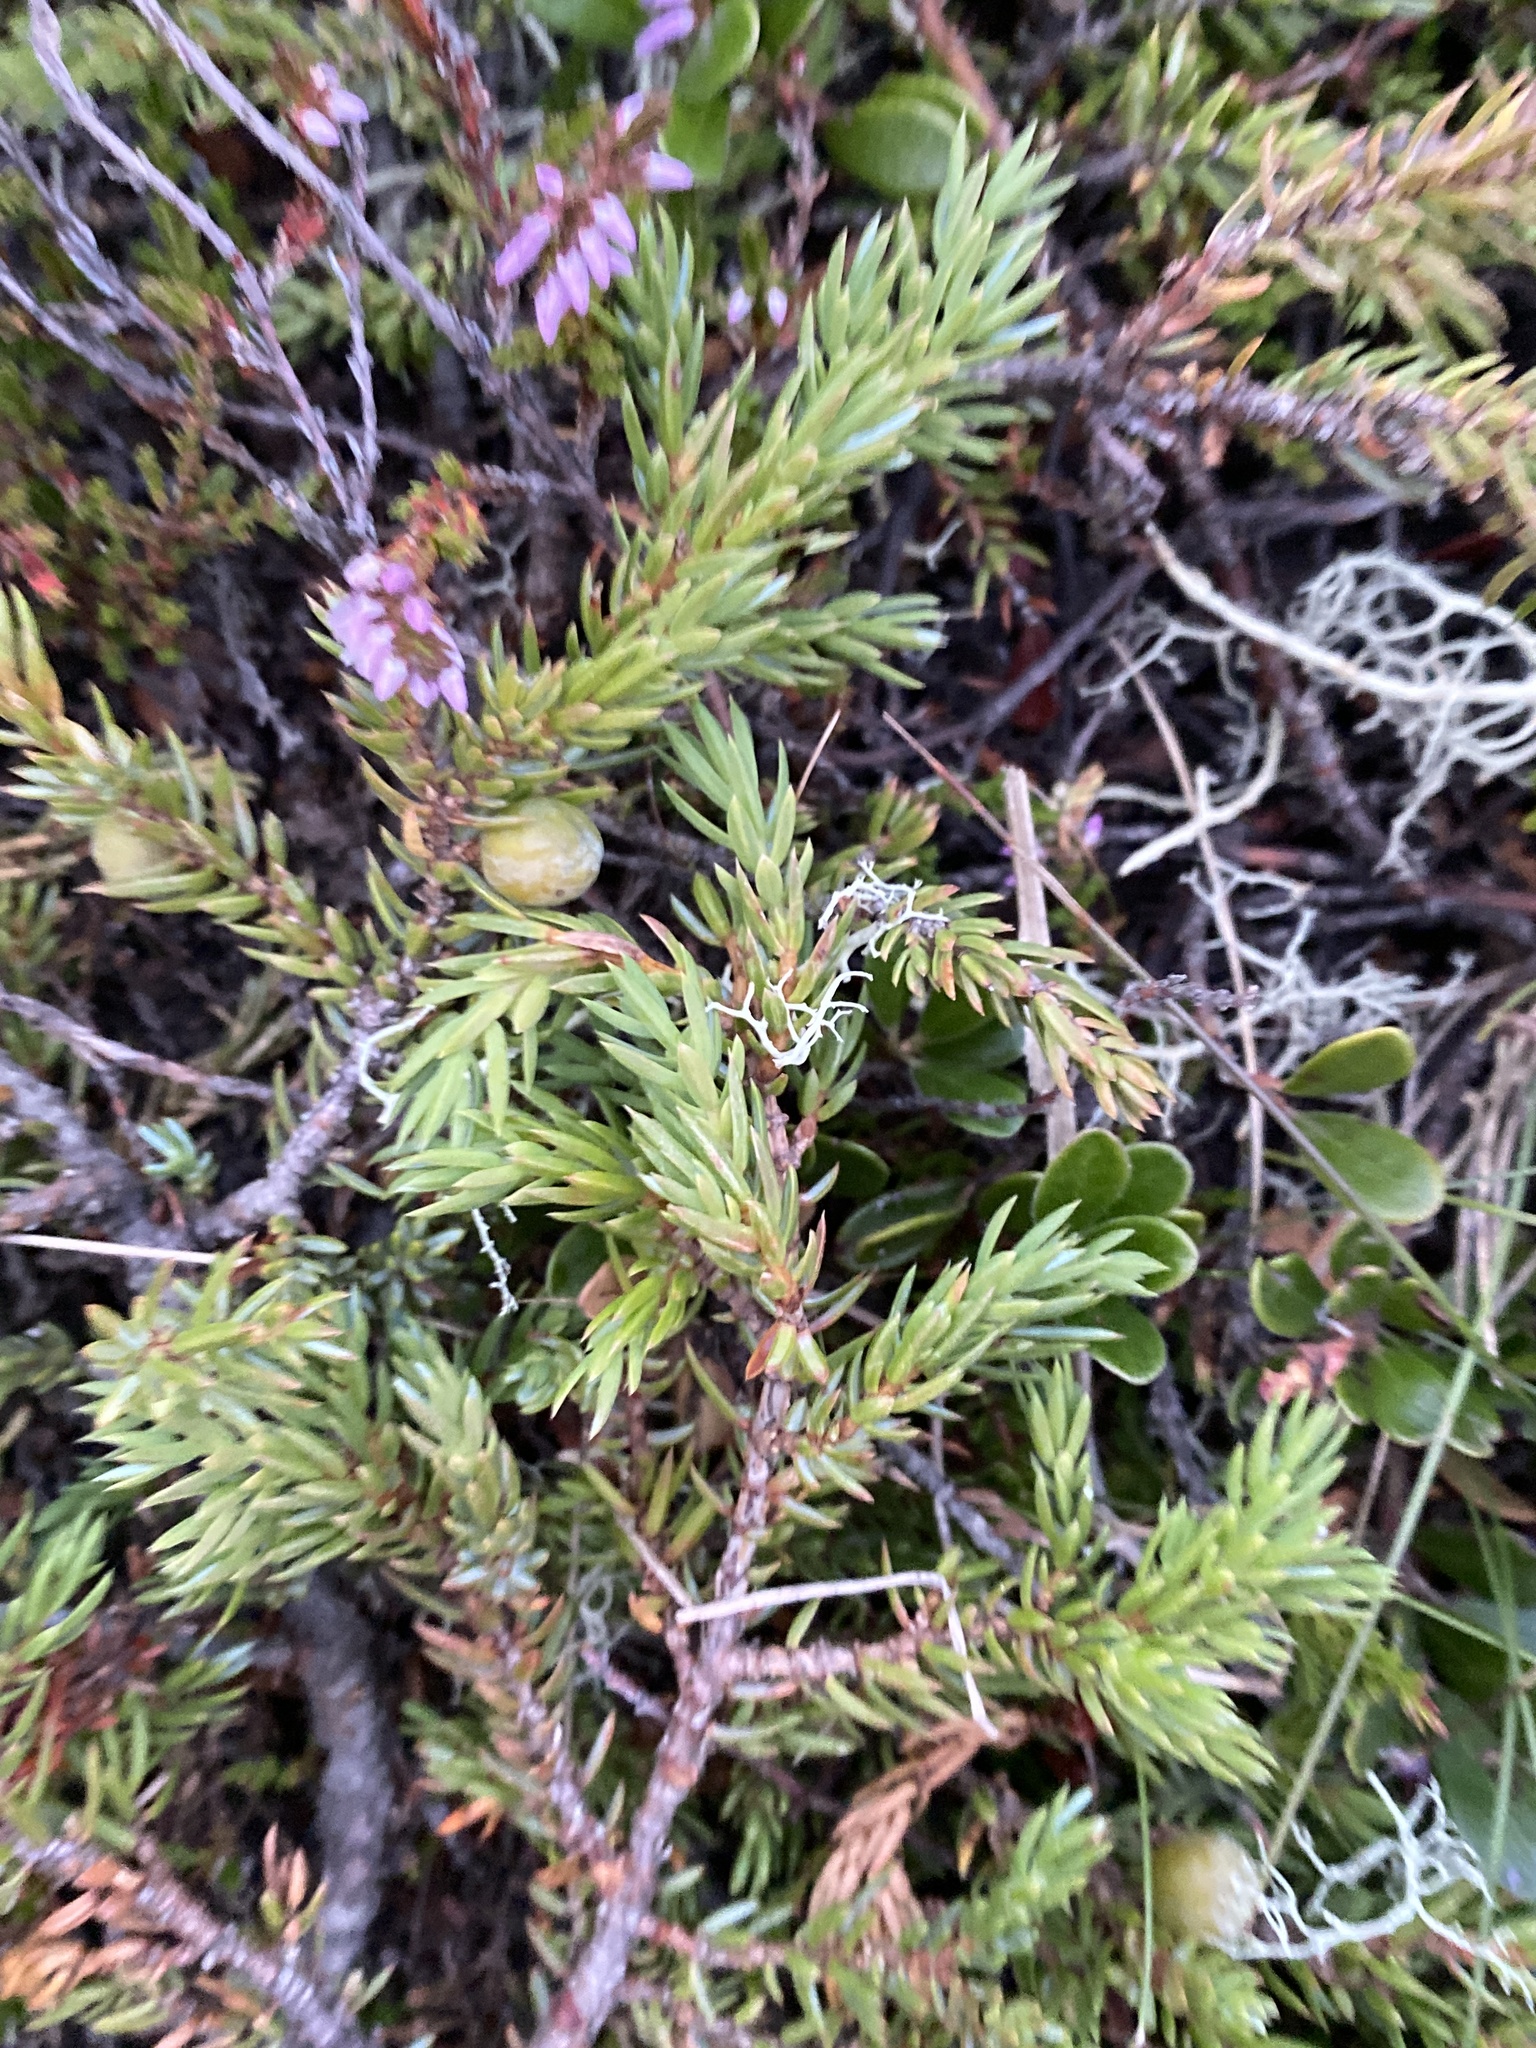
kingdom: Plantae
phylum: Tracheophyta
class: Pinopsida
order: Pinales
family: Cupressaceae
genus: Juniperus
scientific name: Juniperus communis
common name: Common juniper
